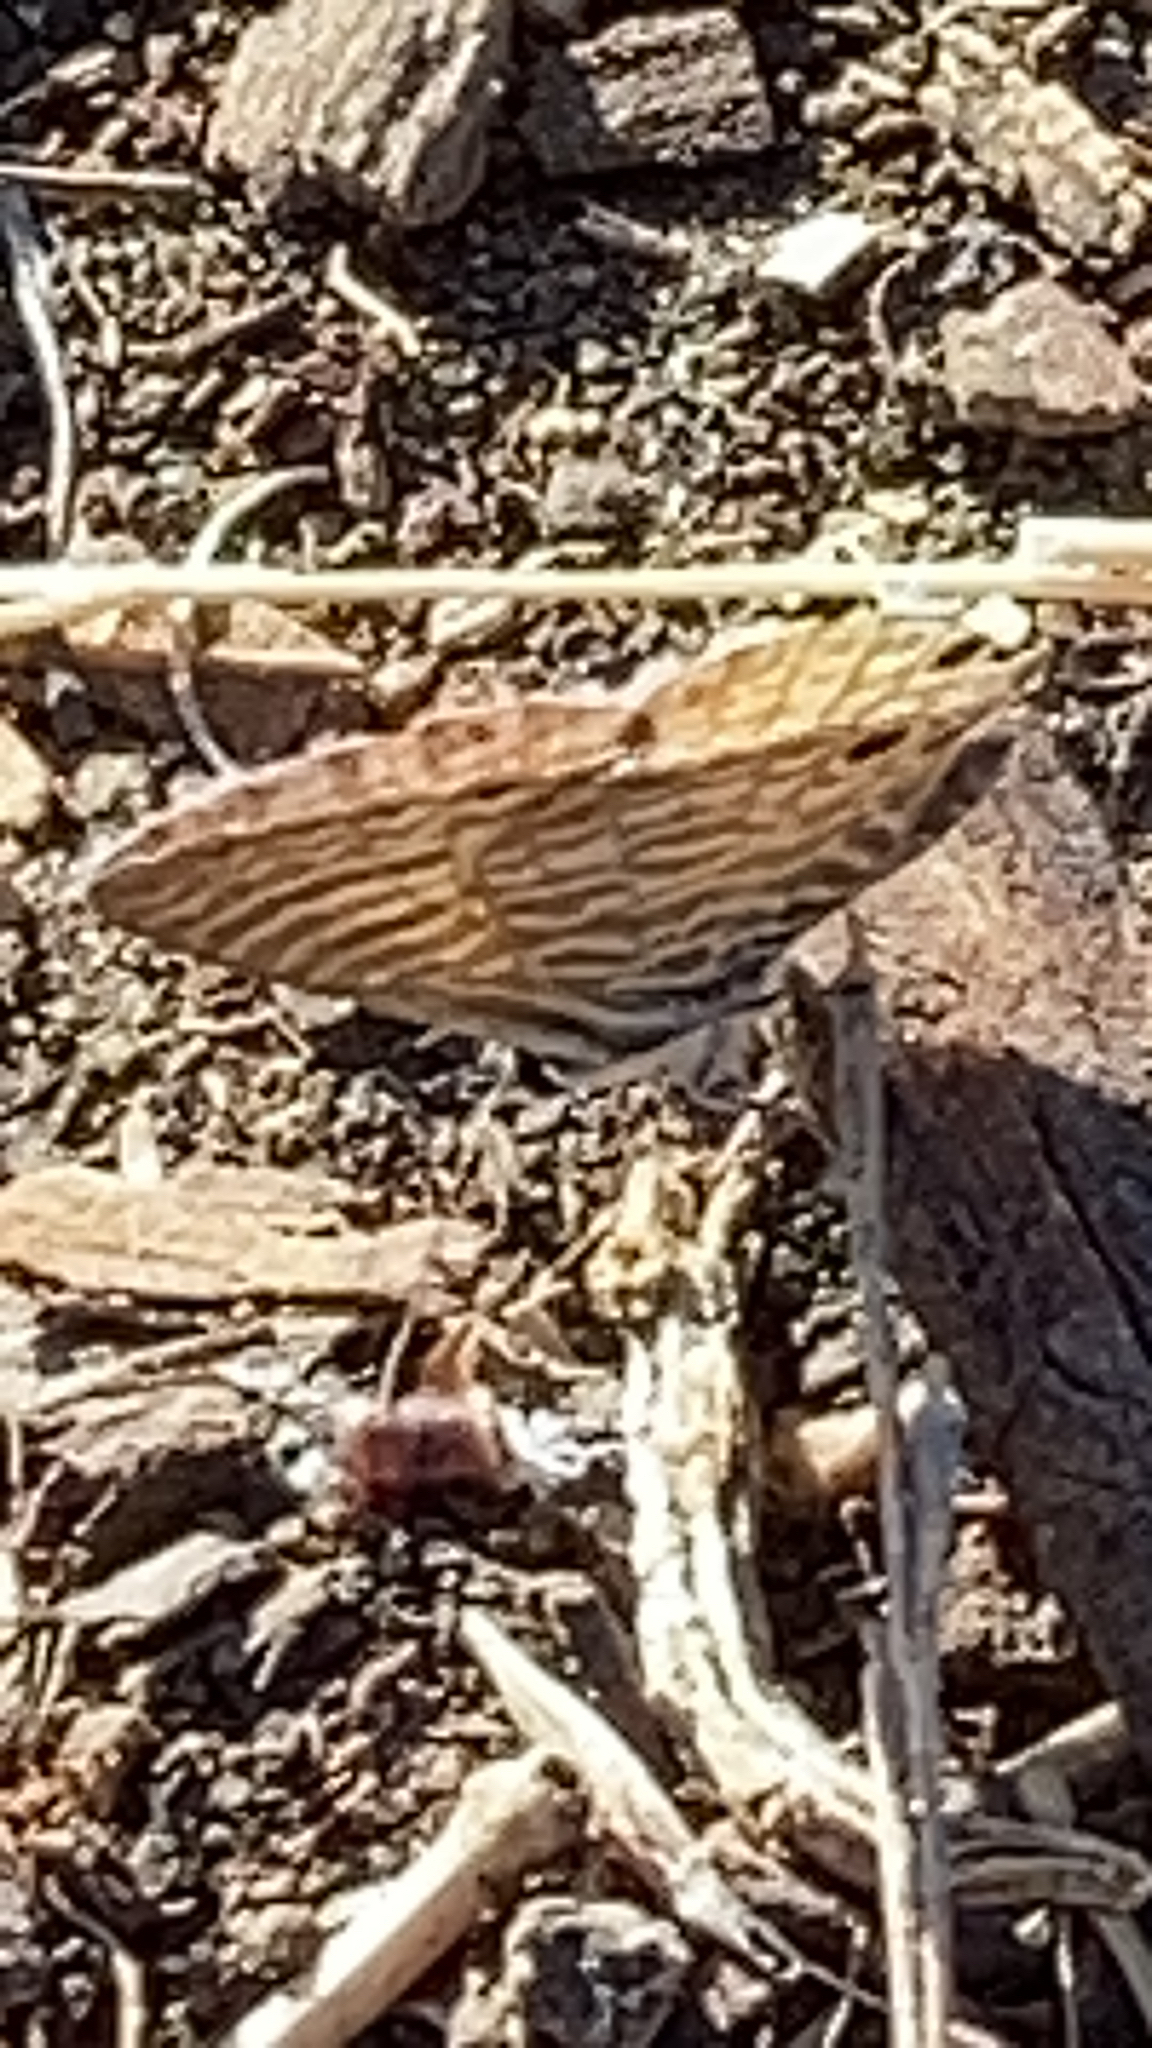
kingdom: Animalia
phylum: Arthropoda
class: Insecta
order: Lepidoptera
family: Lycaenidae
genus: Leptotes
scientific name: Leptotes marina
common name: Marine blue
